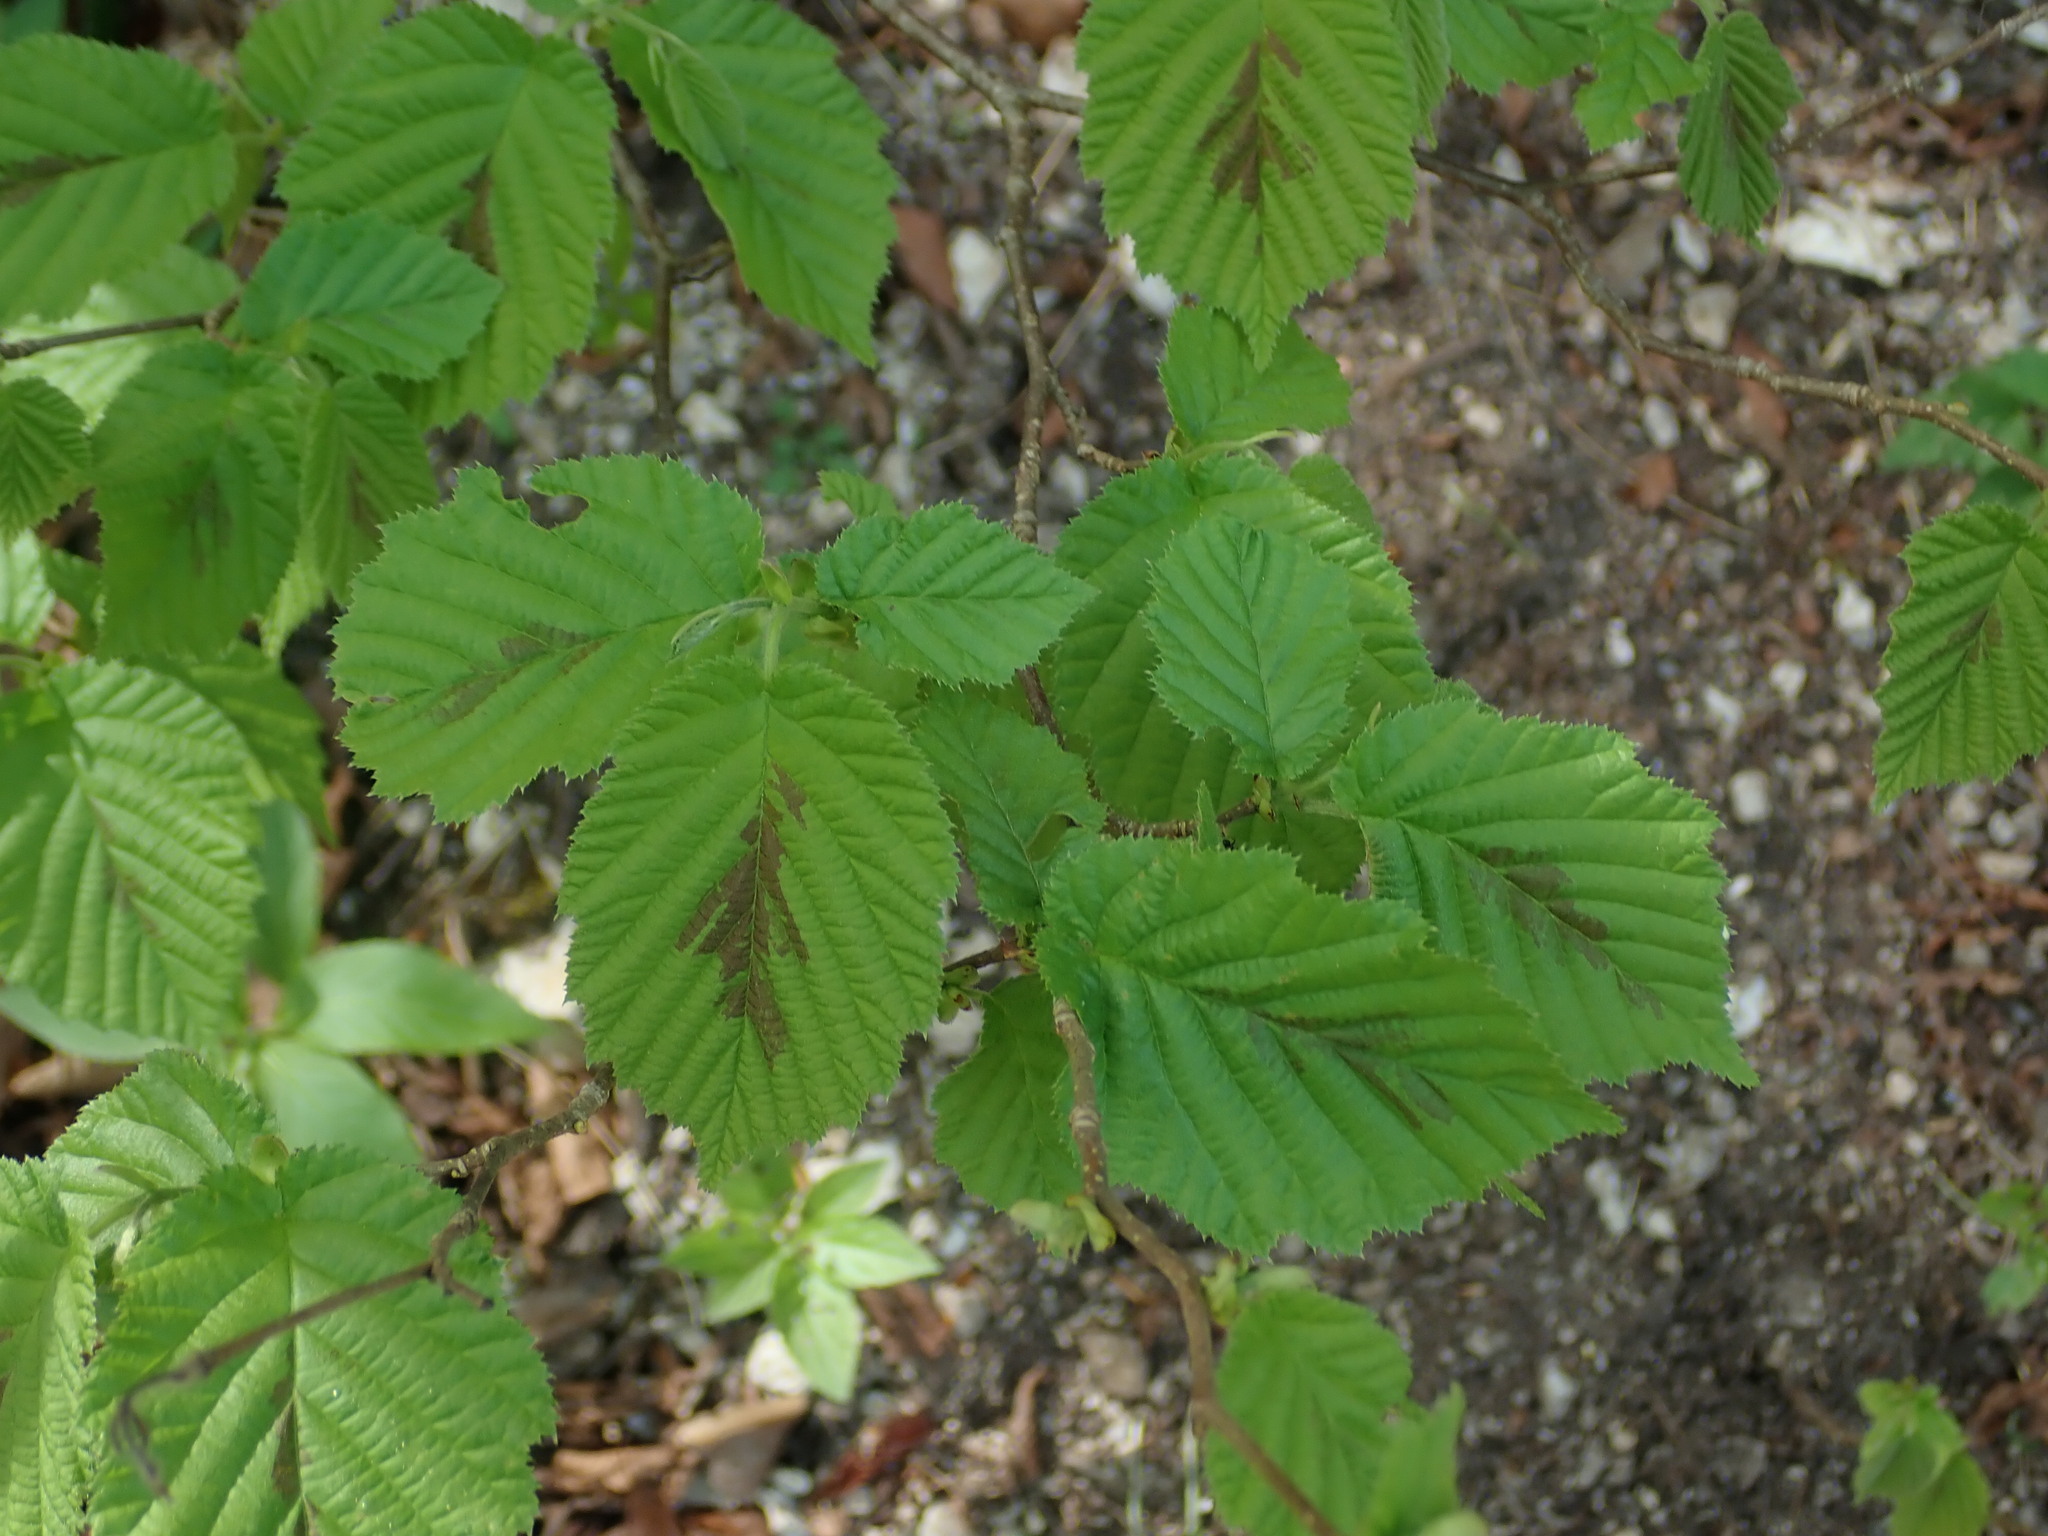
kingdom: Plantae
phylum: Tracheophyta
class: Magnoliopsida
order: Fagales
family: Betulaceae
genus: Corylus
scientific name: Corylus avellana
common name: European hazel
